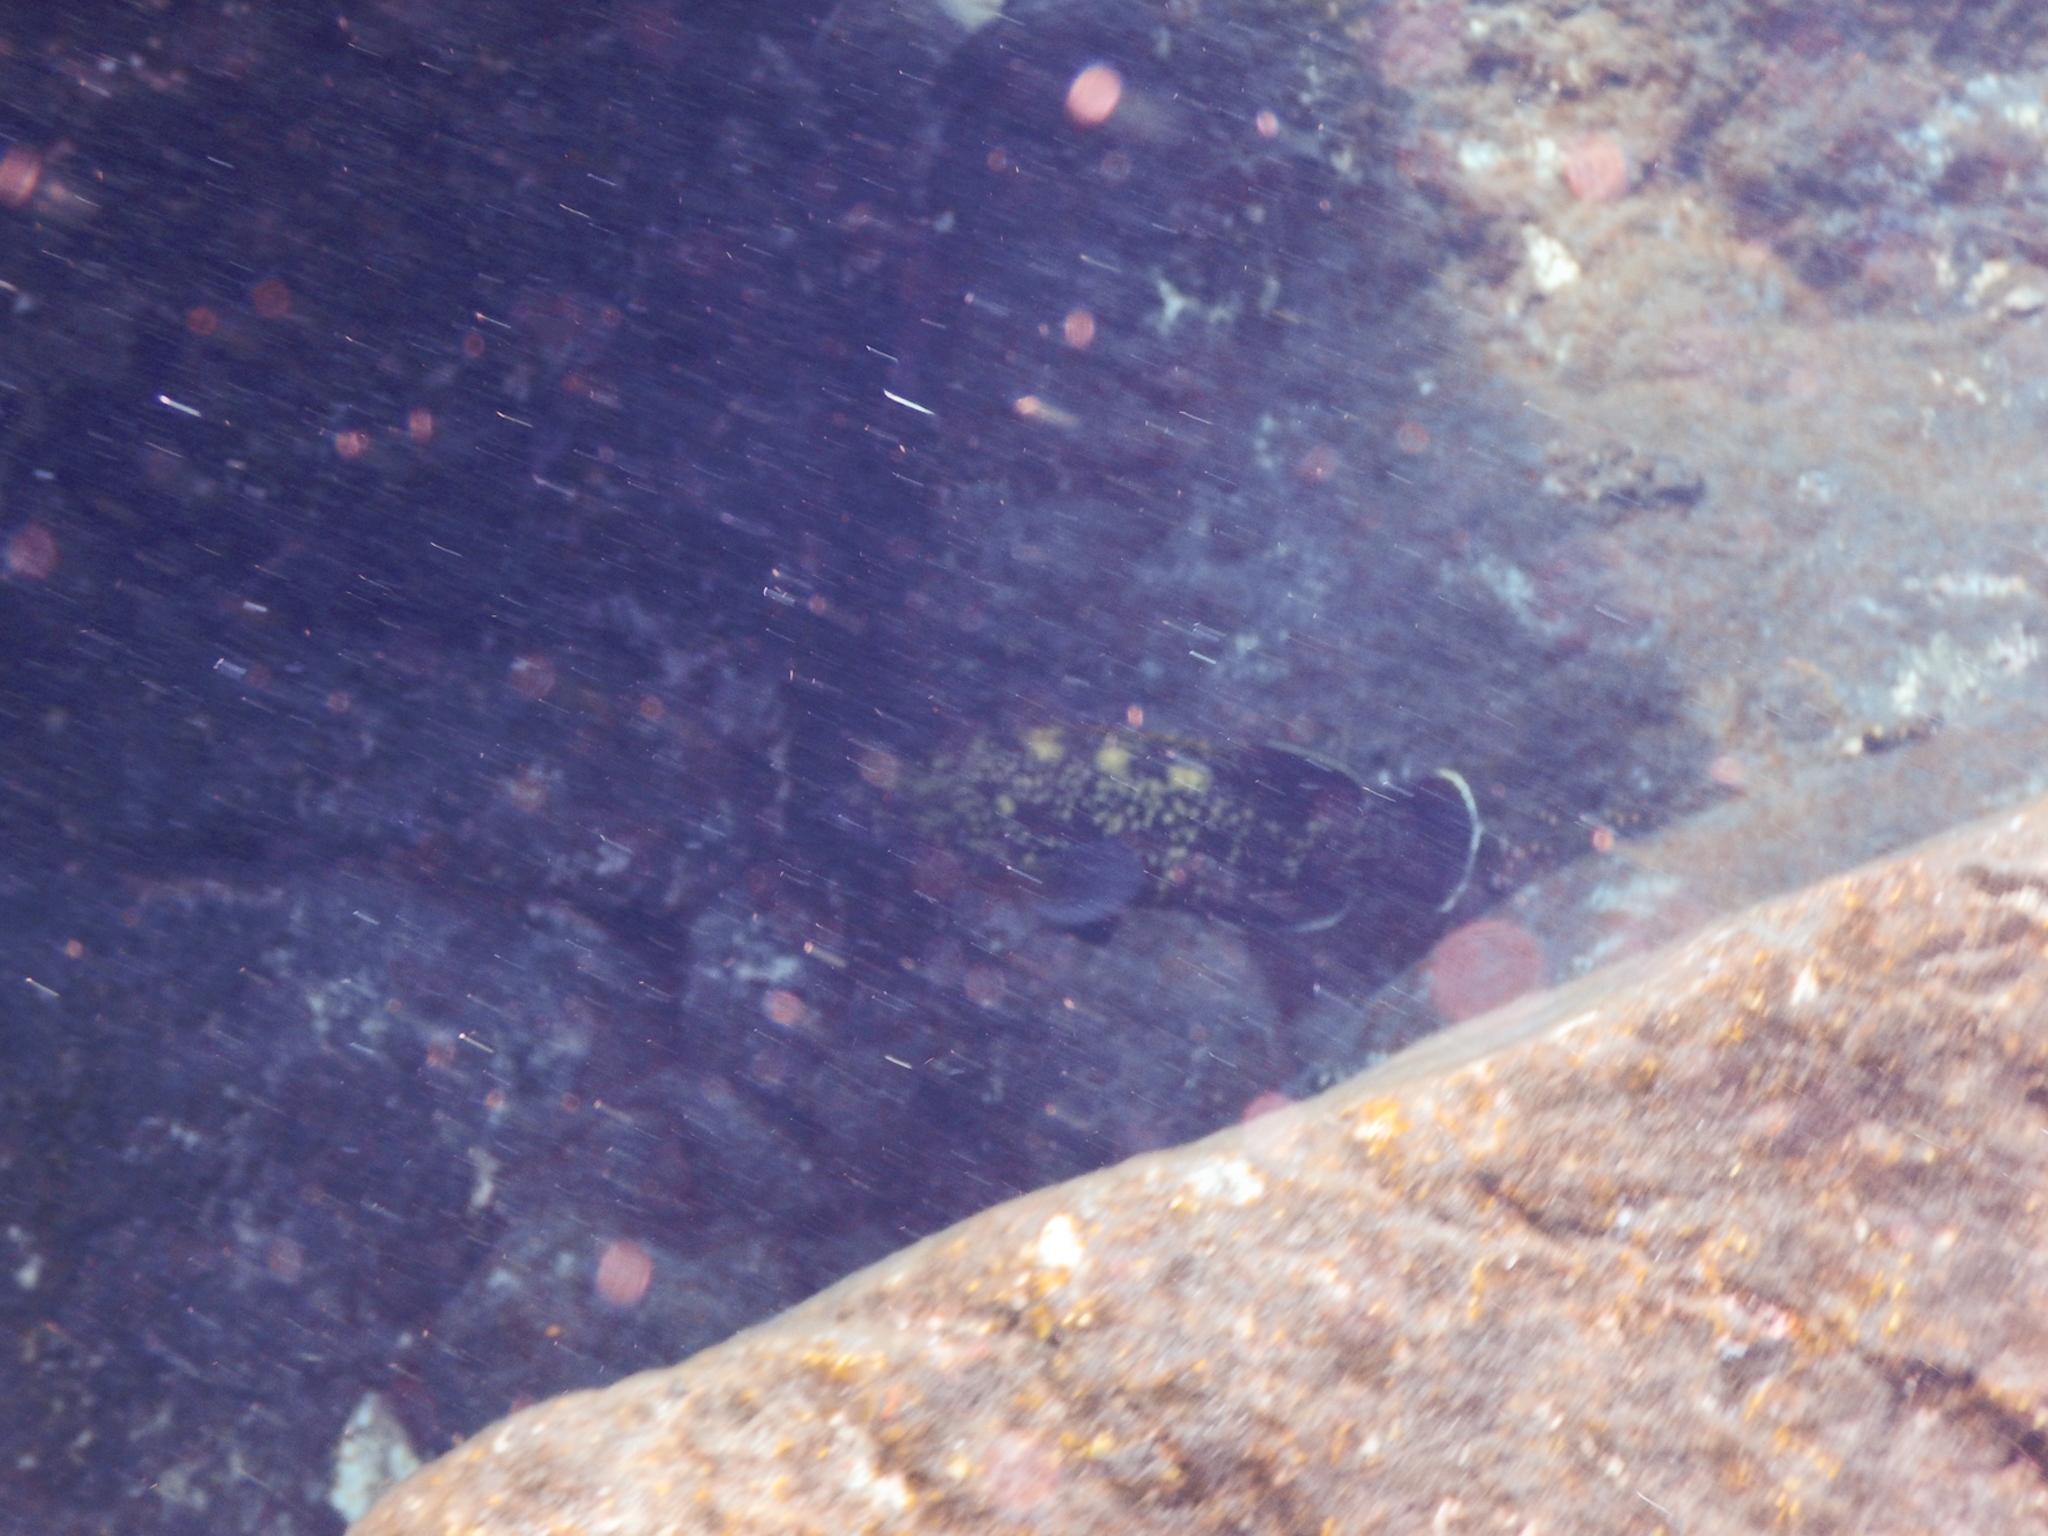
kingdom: Animalia
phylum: Chordata
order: Perciformes
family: Serranidae
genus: Epinephelus
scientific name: Epinephelus marginatus
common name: Dusky grouper
